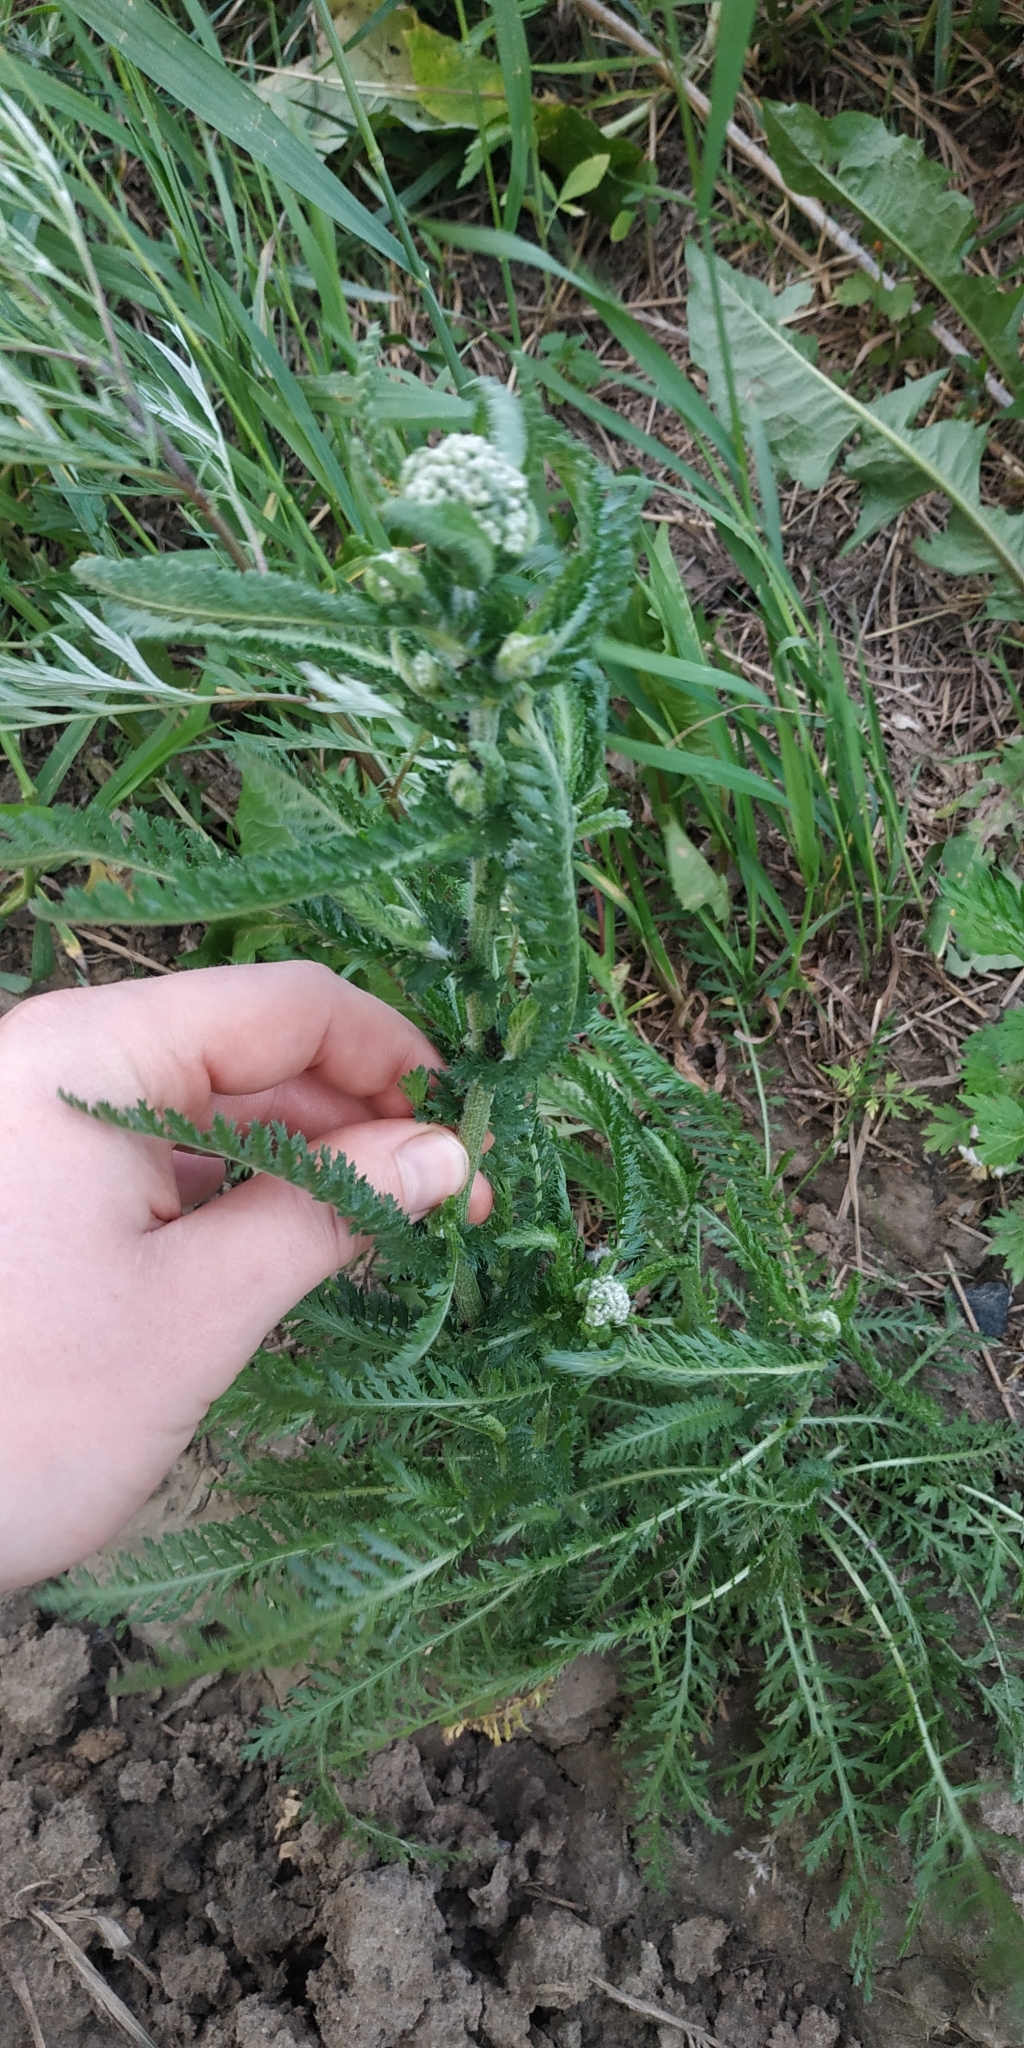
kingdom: Plantae
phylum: Tracheophyta
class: Magnoliopsida
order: Asterales
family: Asteraceae
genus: Achillea
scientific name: Achillea millefolium
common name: Yarrow
